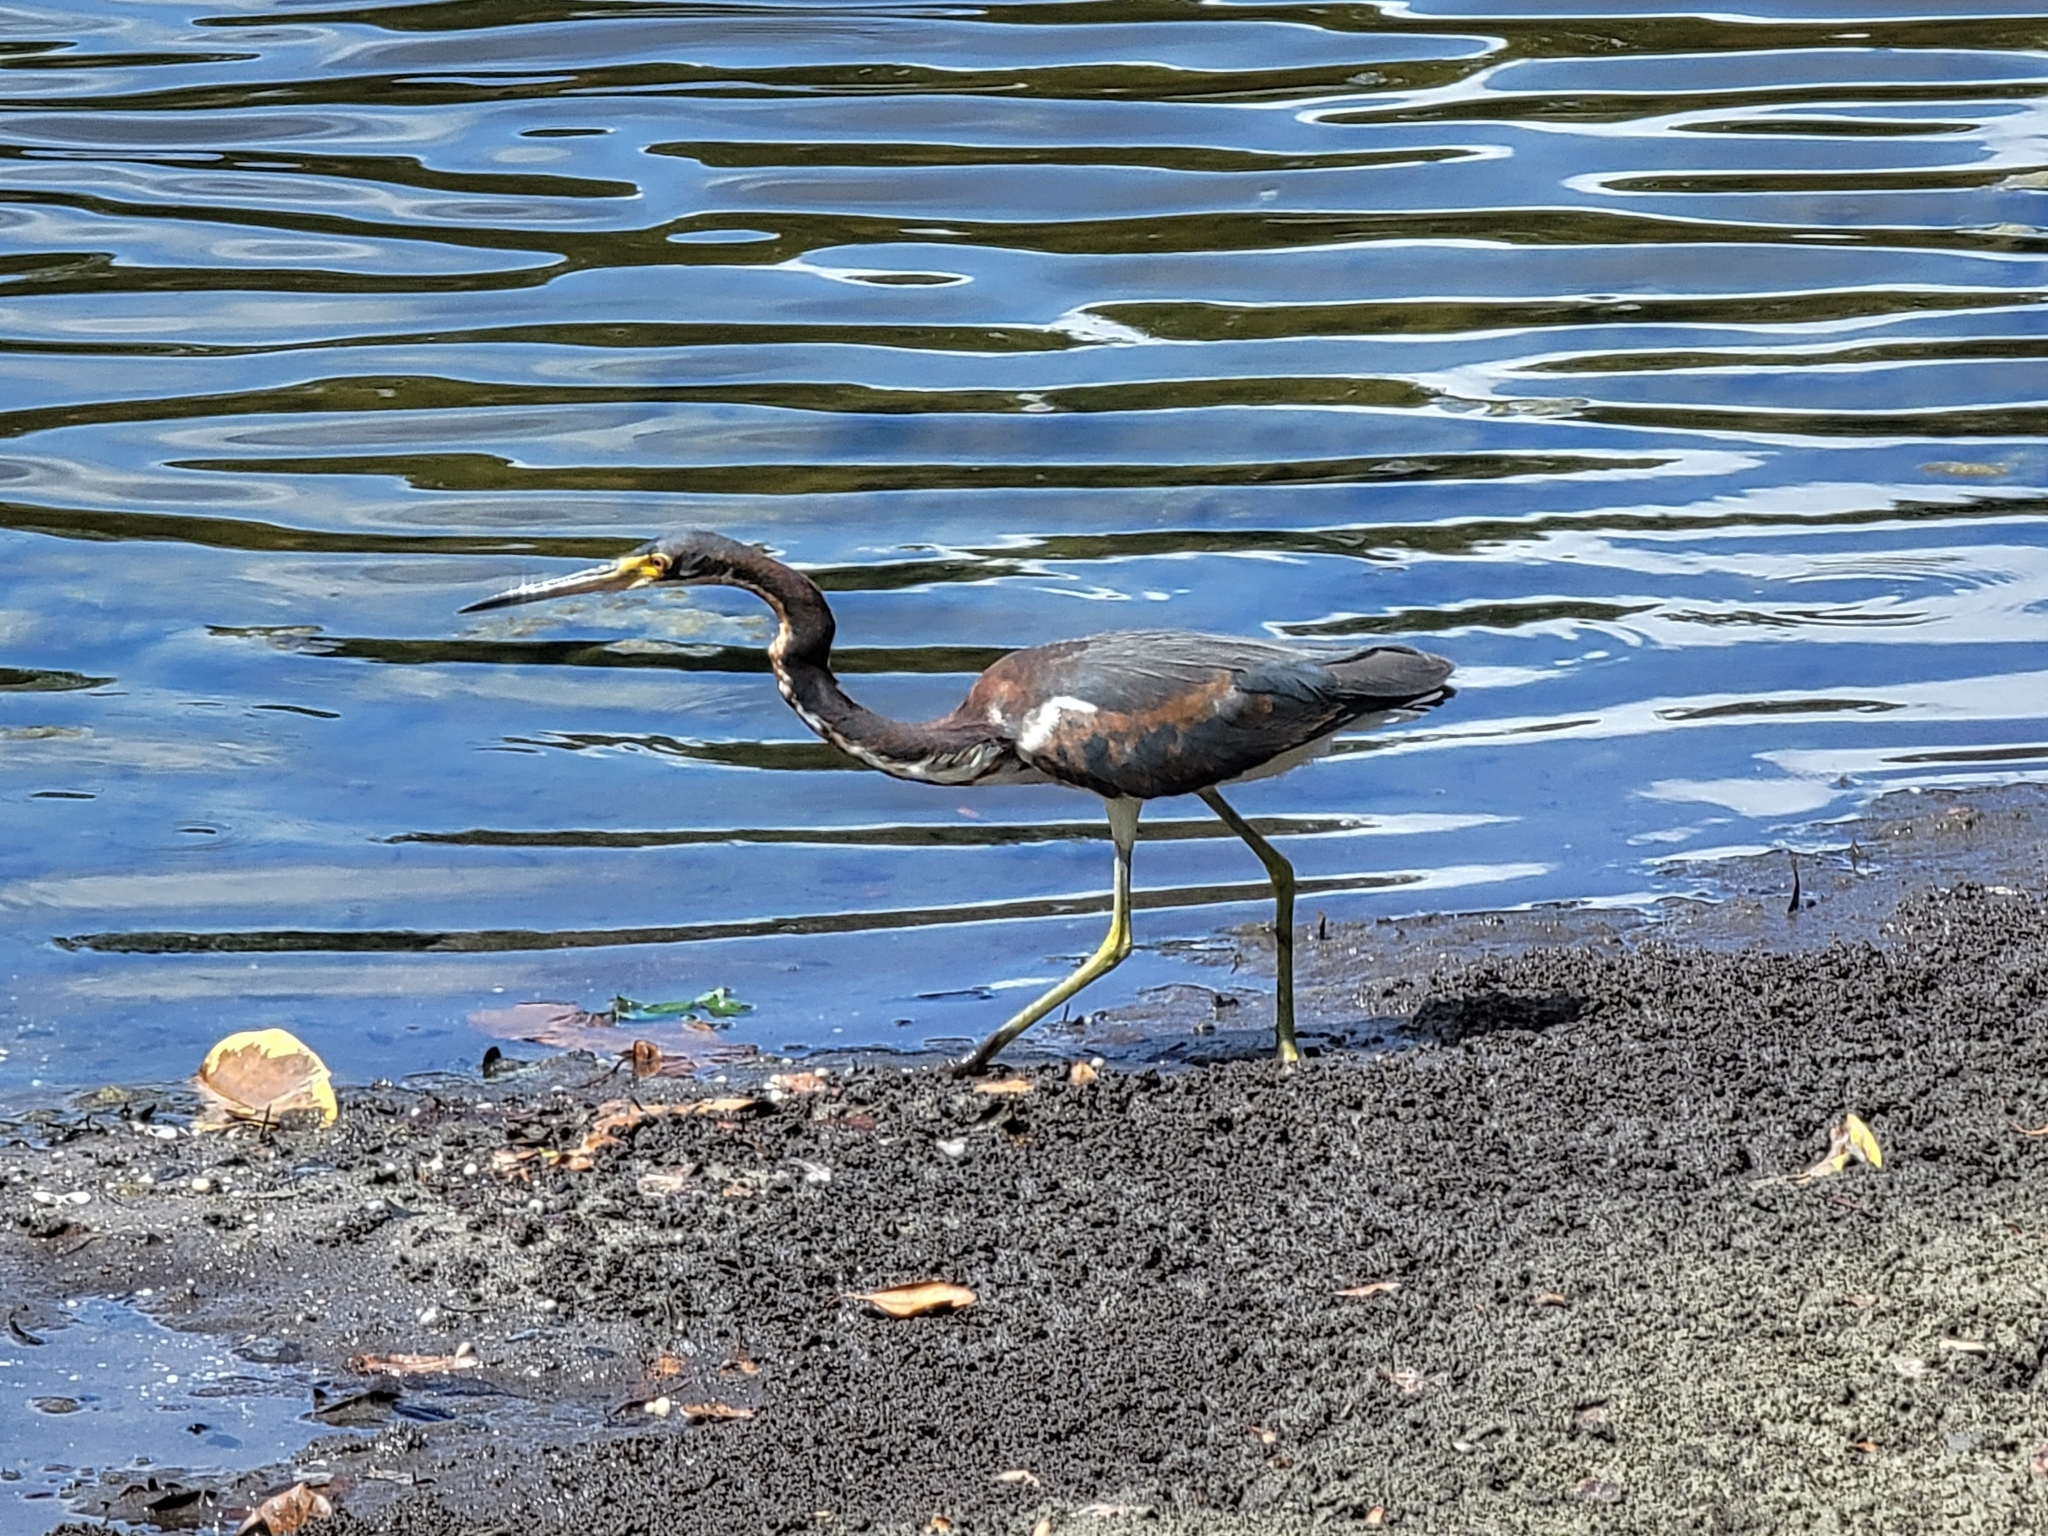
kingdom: Animalia
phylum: Chordata
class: Aves
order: Pelecaniformes
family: Ardeidae
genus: Egretta
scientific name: Egretta tricolor
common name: Tricolored heron
